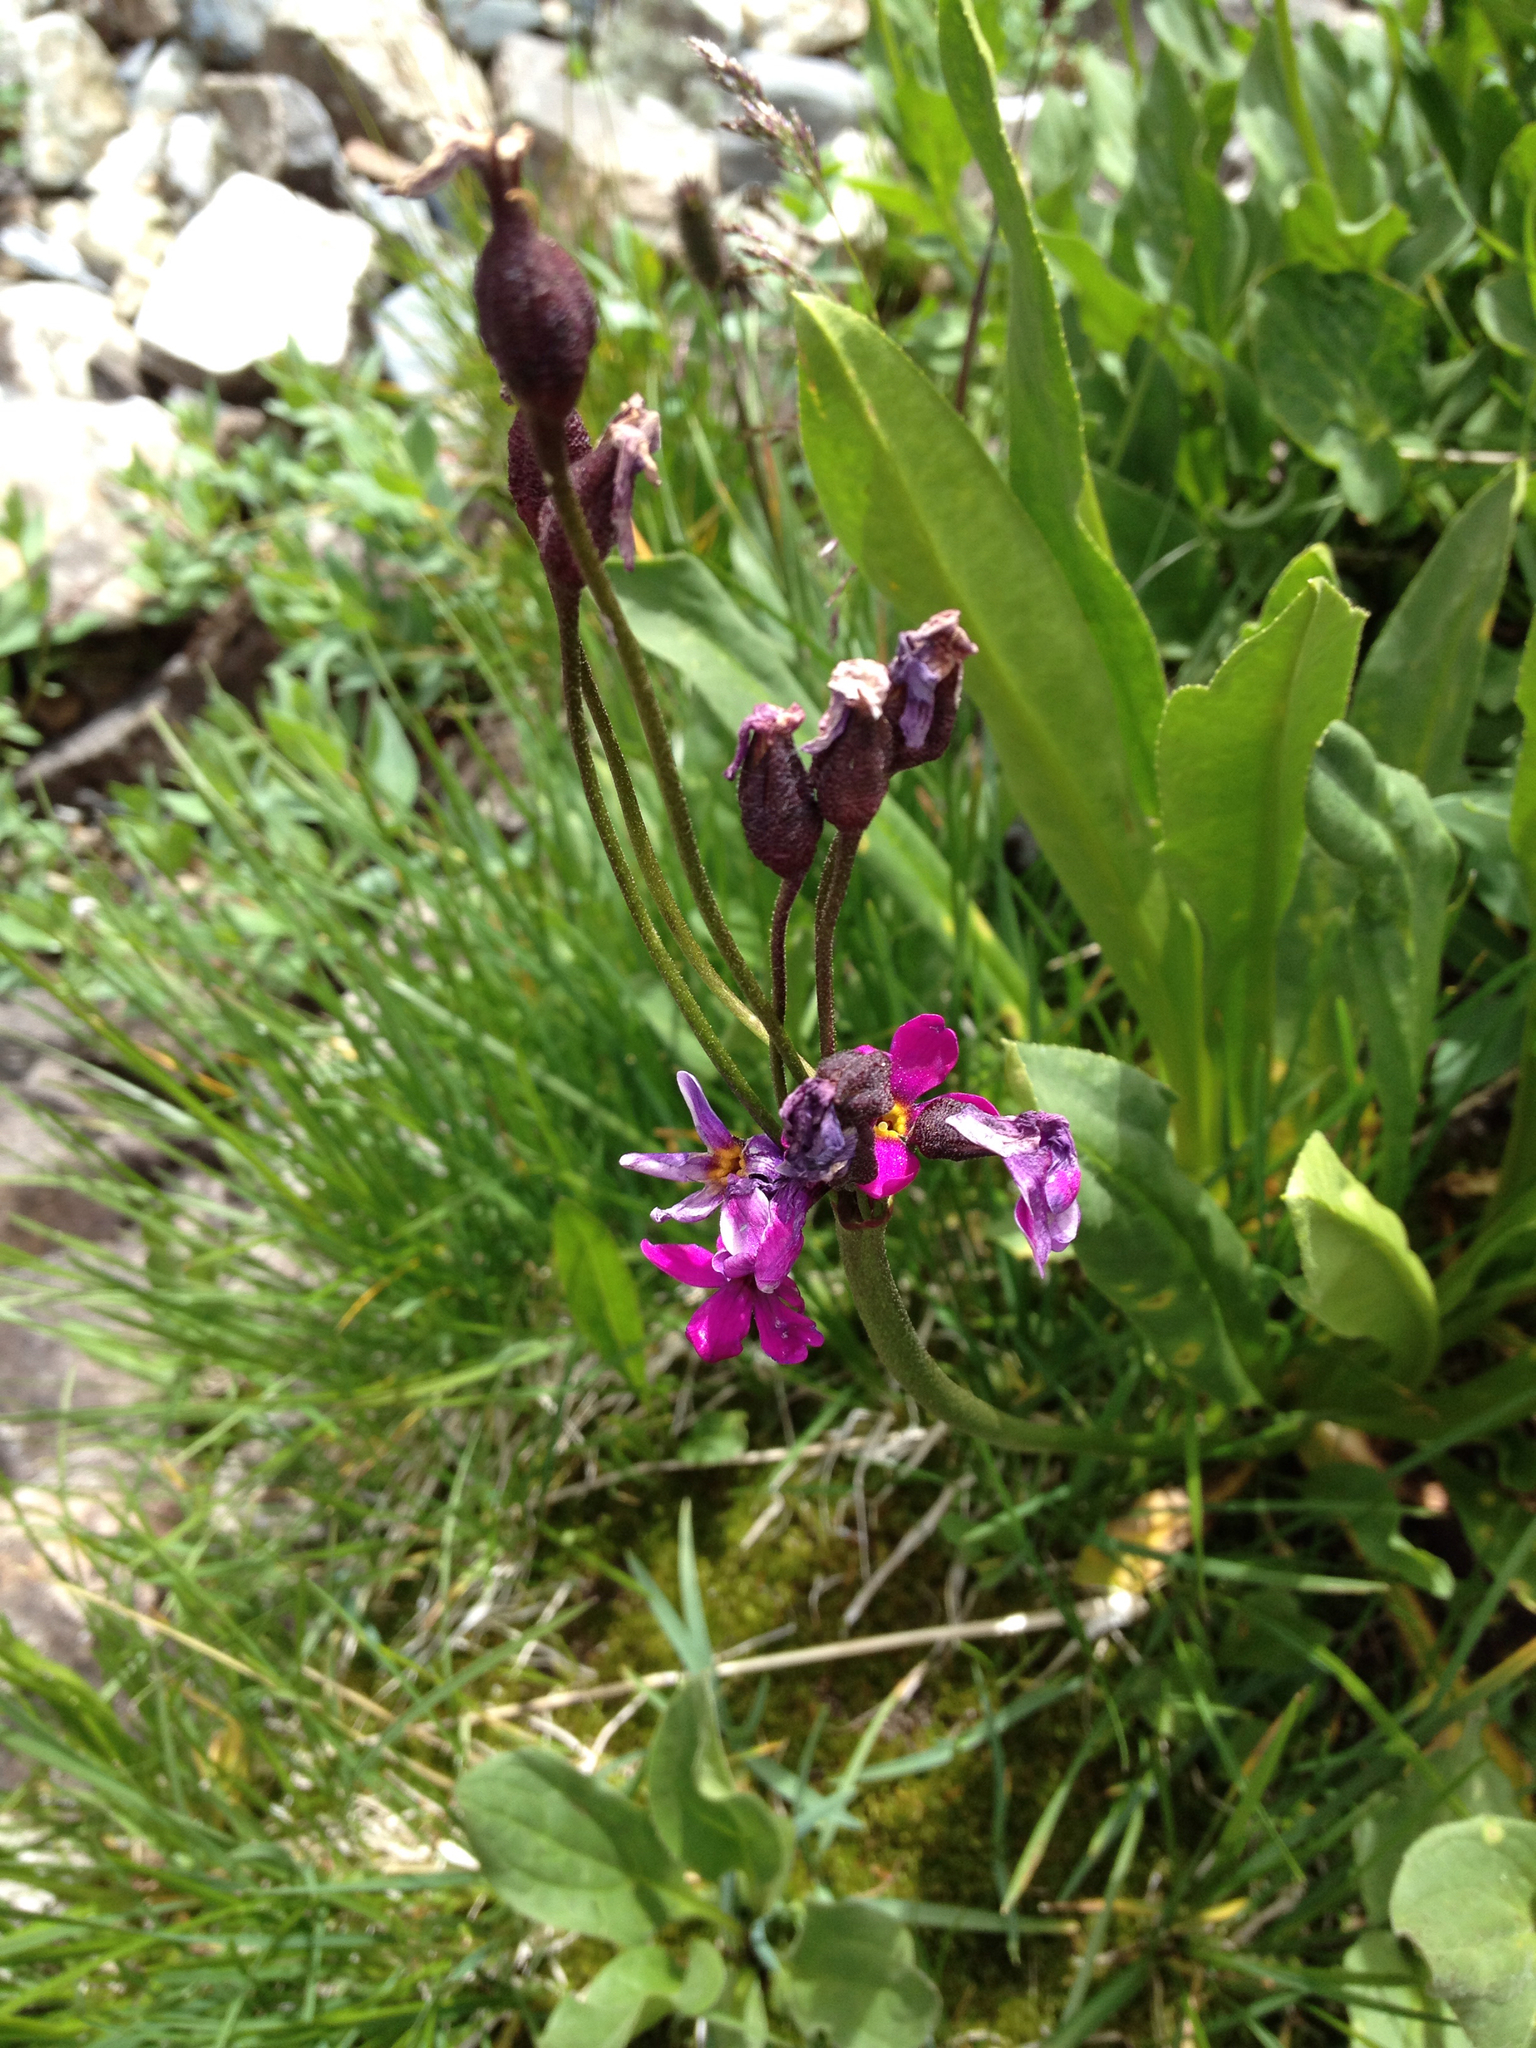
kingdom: Plantae
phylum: Tracheophyta
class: Magnoliopsida
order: Ericales
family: Primulaceae
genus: Primula
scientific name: Primula parryi
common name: Parry's primrose
